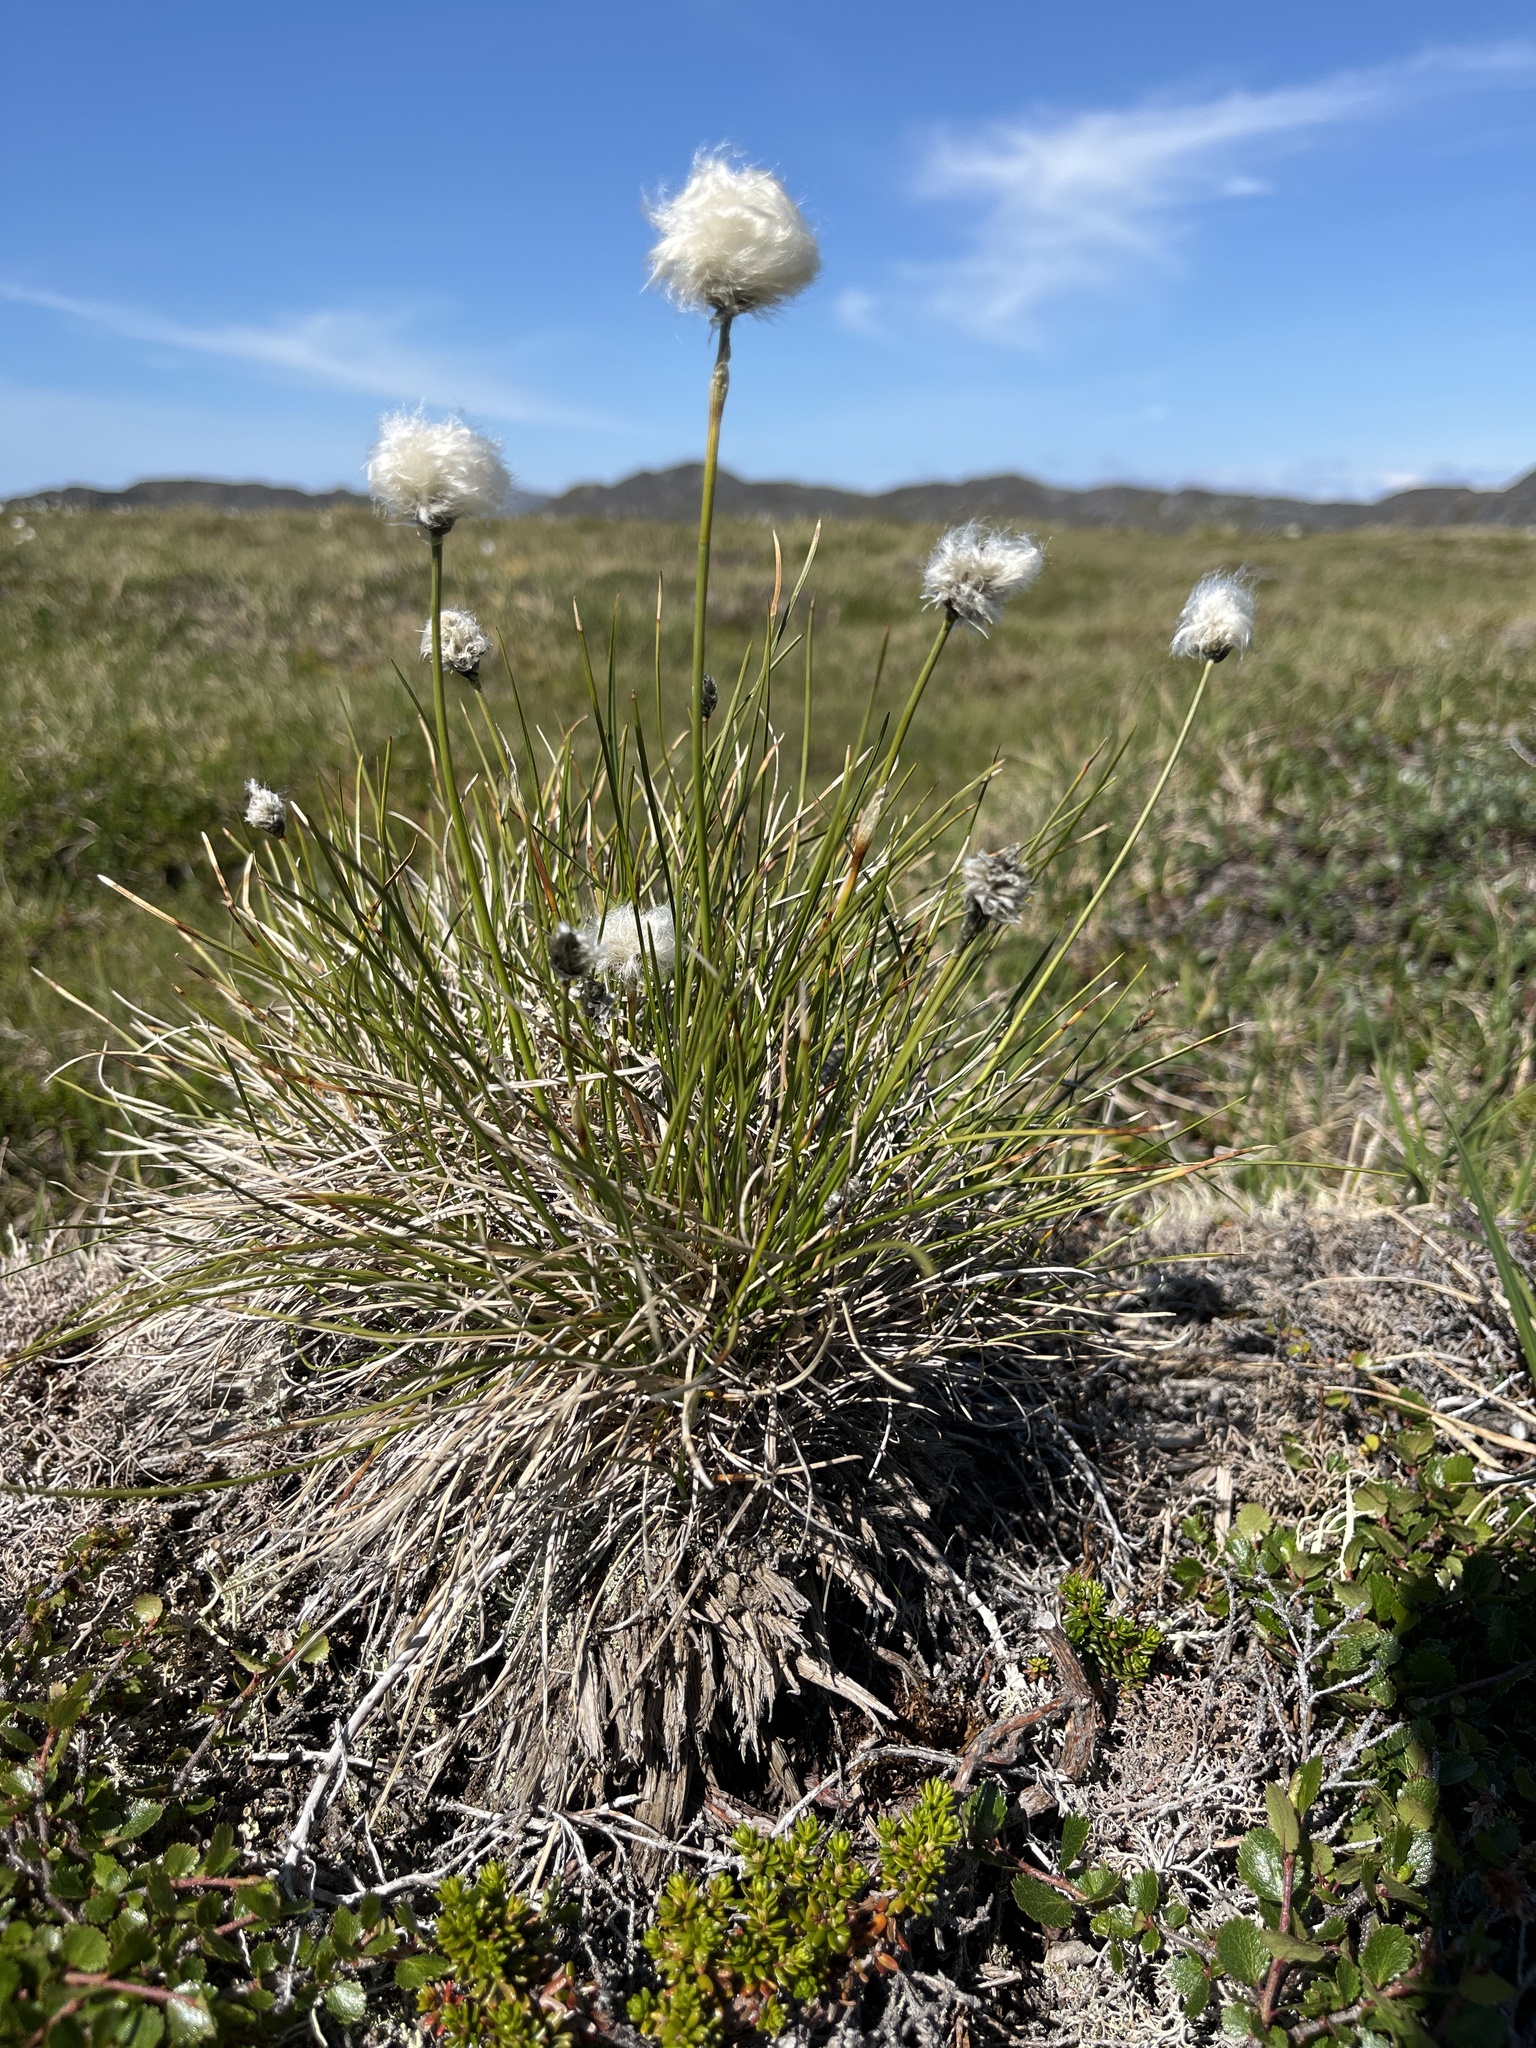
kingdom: Plantae
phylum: Tracheophyta
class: Liliopsida
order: Poales
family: Cyperaceae
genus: Eriophorum
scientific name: Eriophorum vaginatum
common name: Hare's-tail cottongrass
